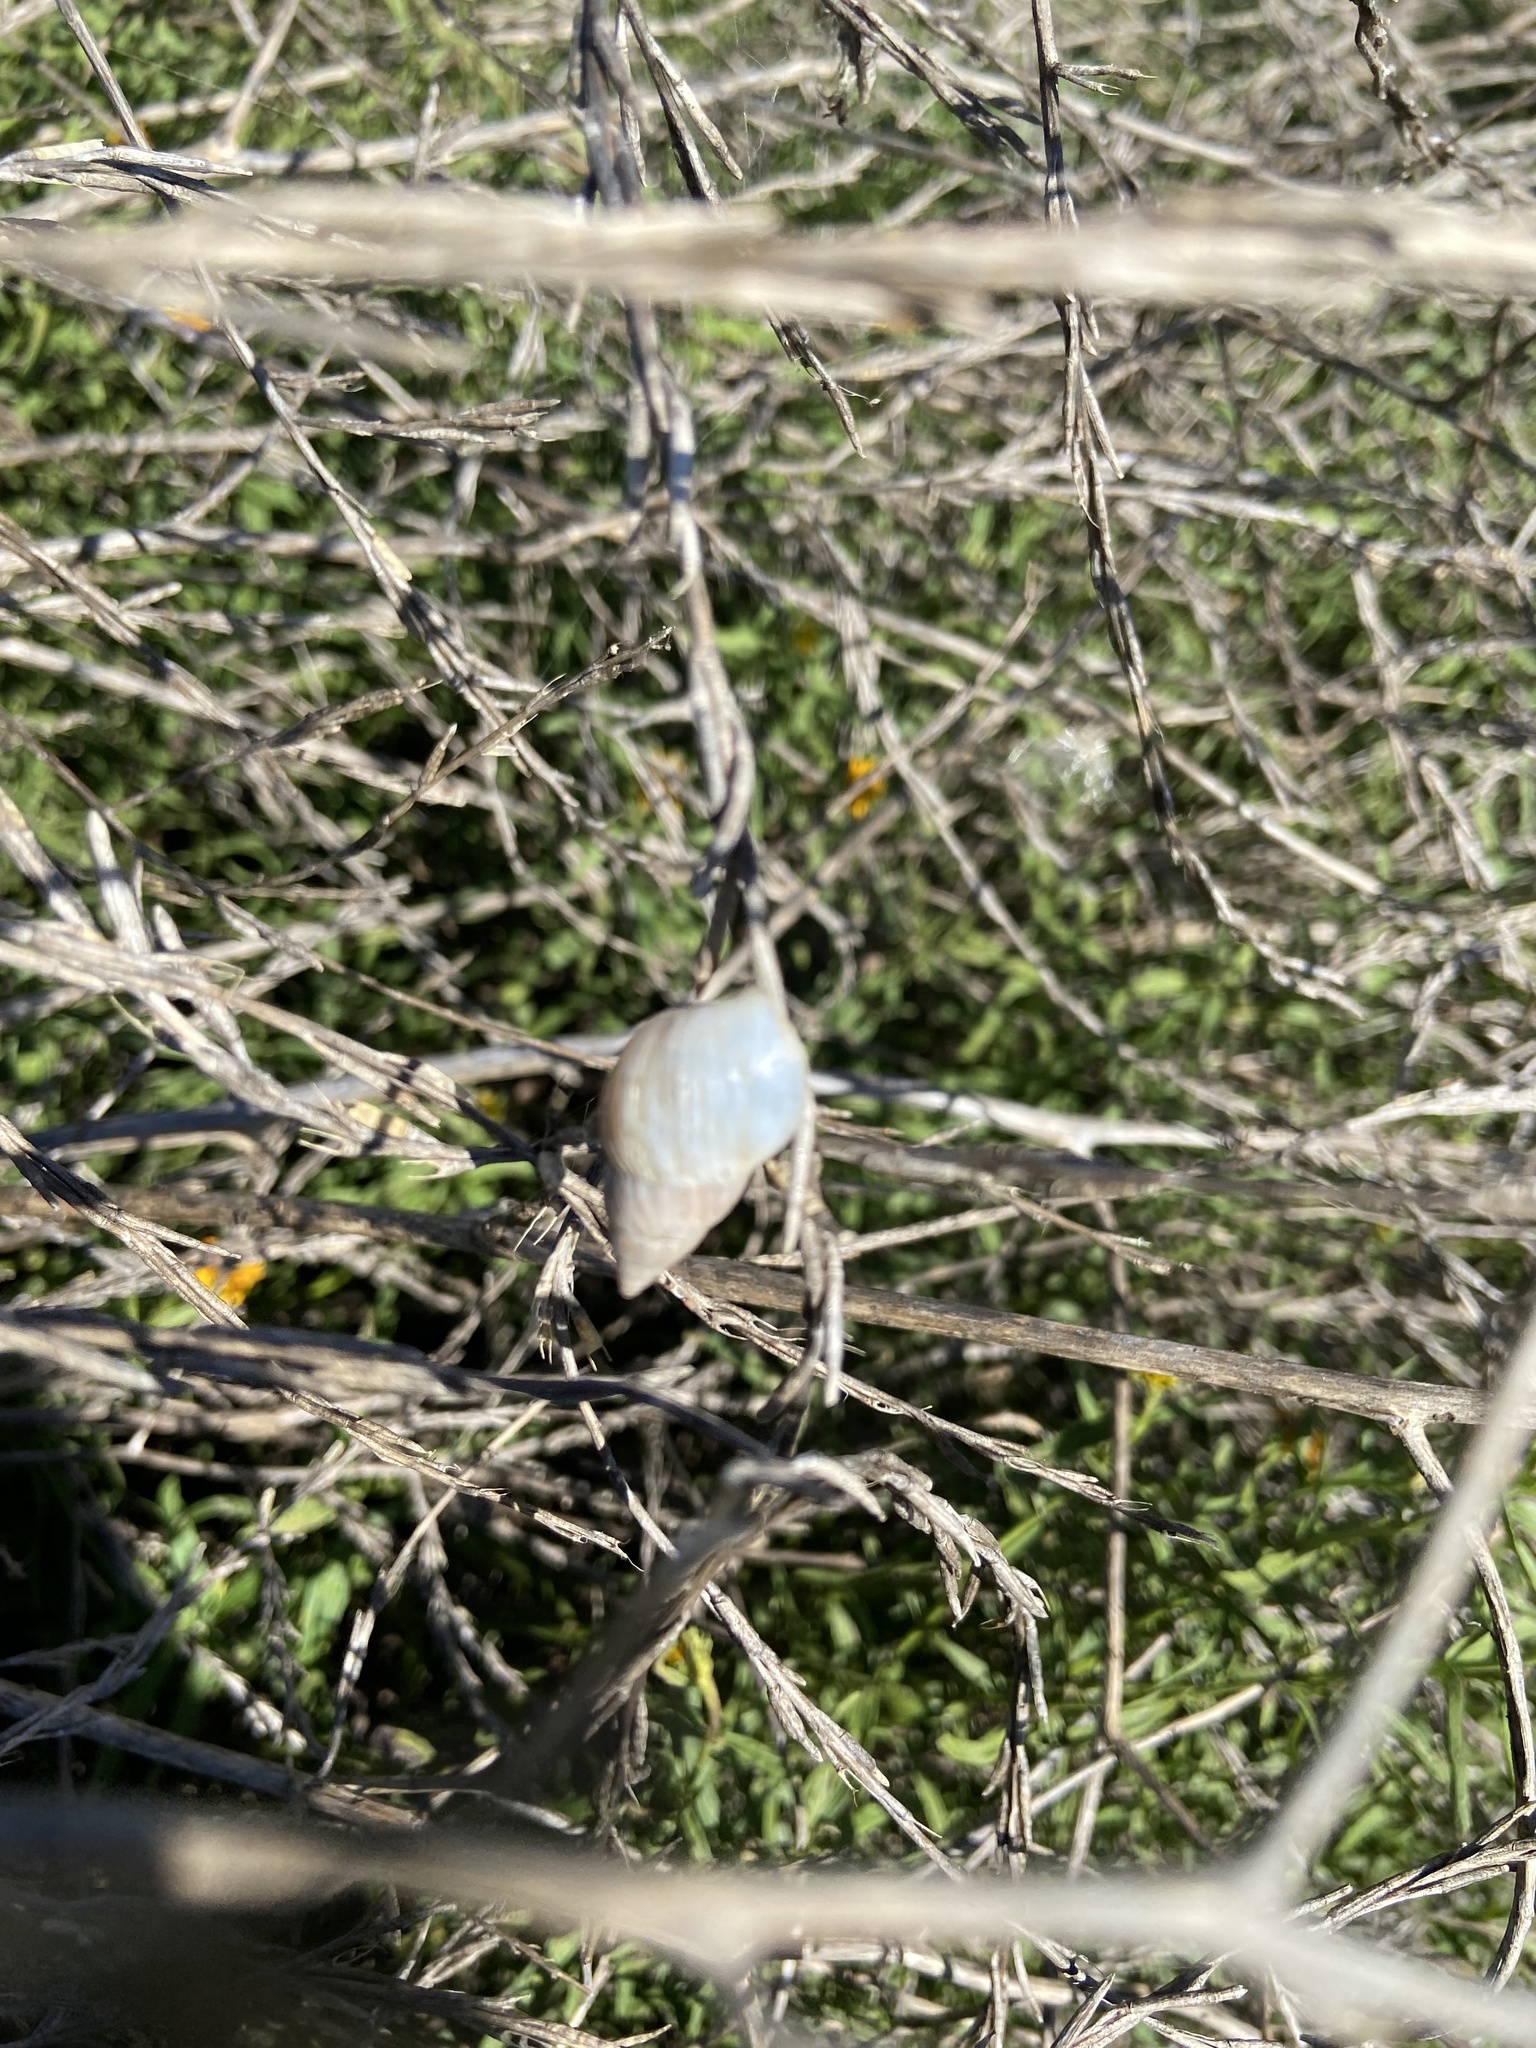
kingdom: Animalia
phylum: Mollusca
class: Gastropoda
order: Stylommatophora
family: Bulimulidae
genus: Bulimulus
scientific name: Bulimulus bonariensis
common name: Snail
